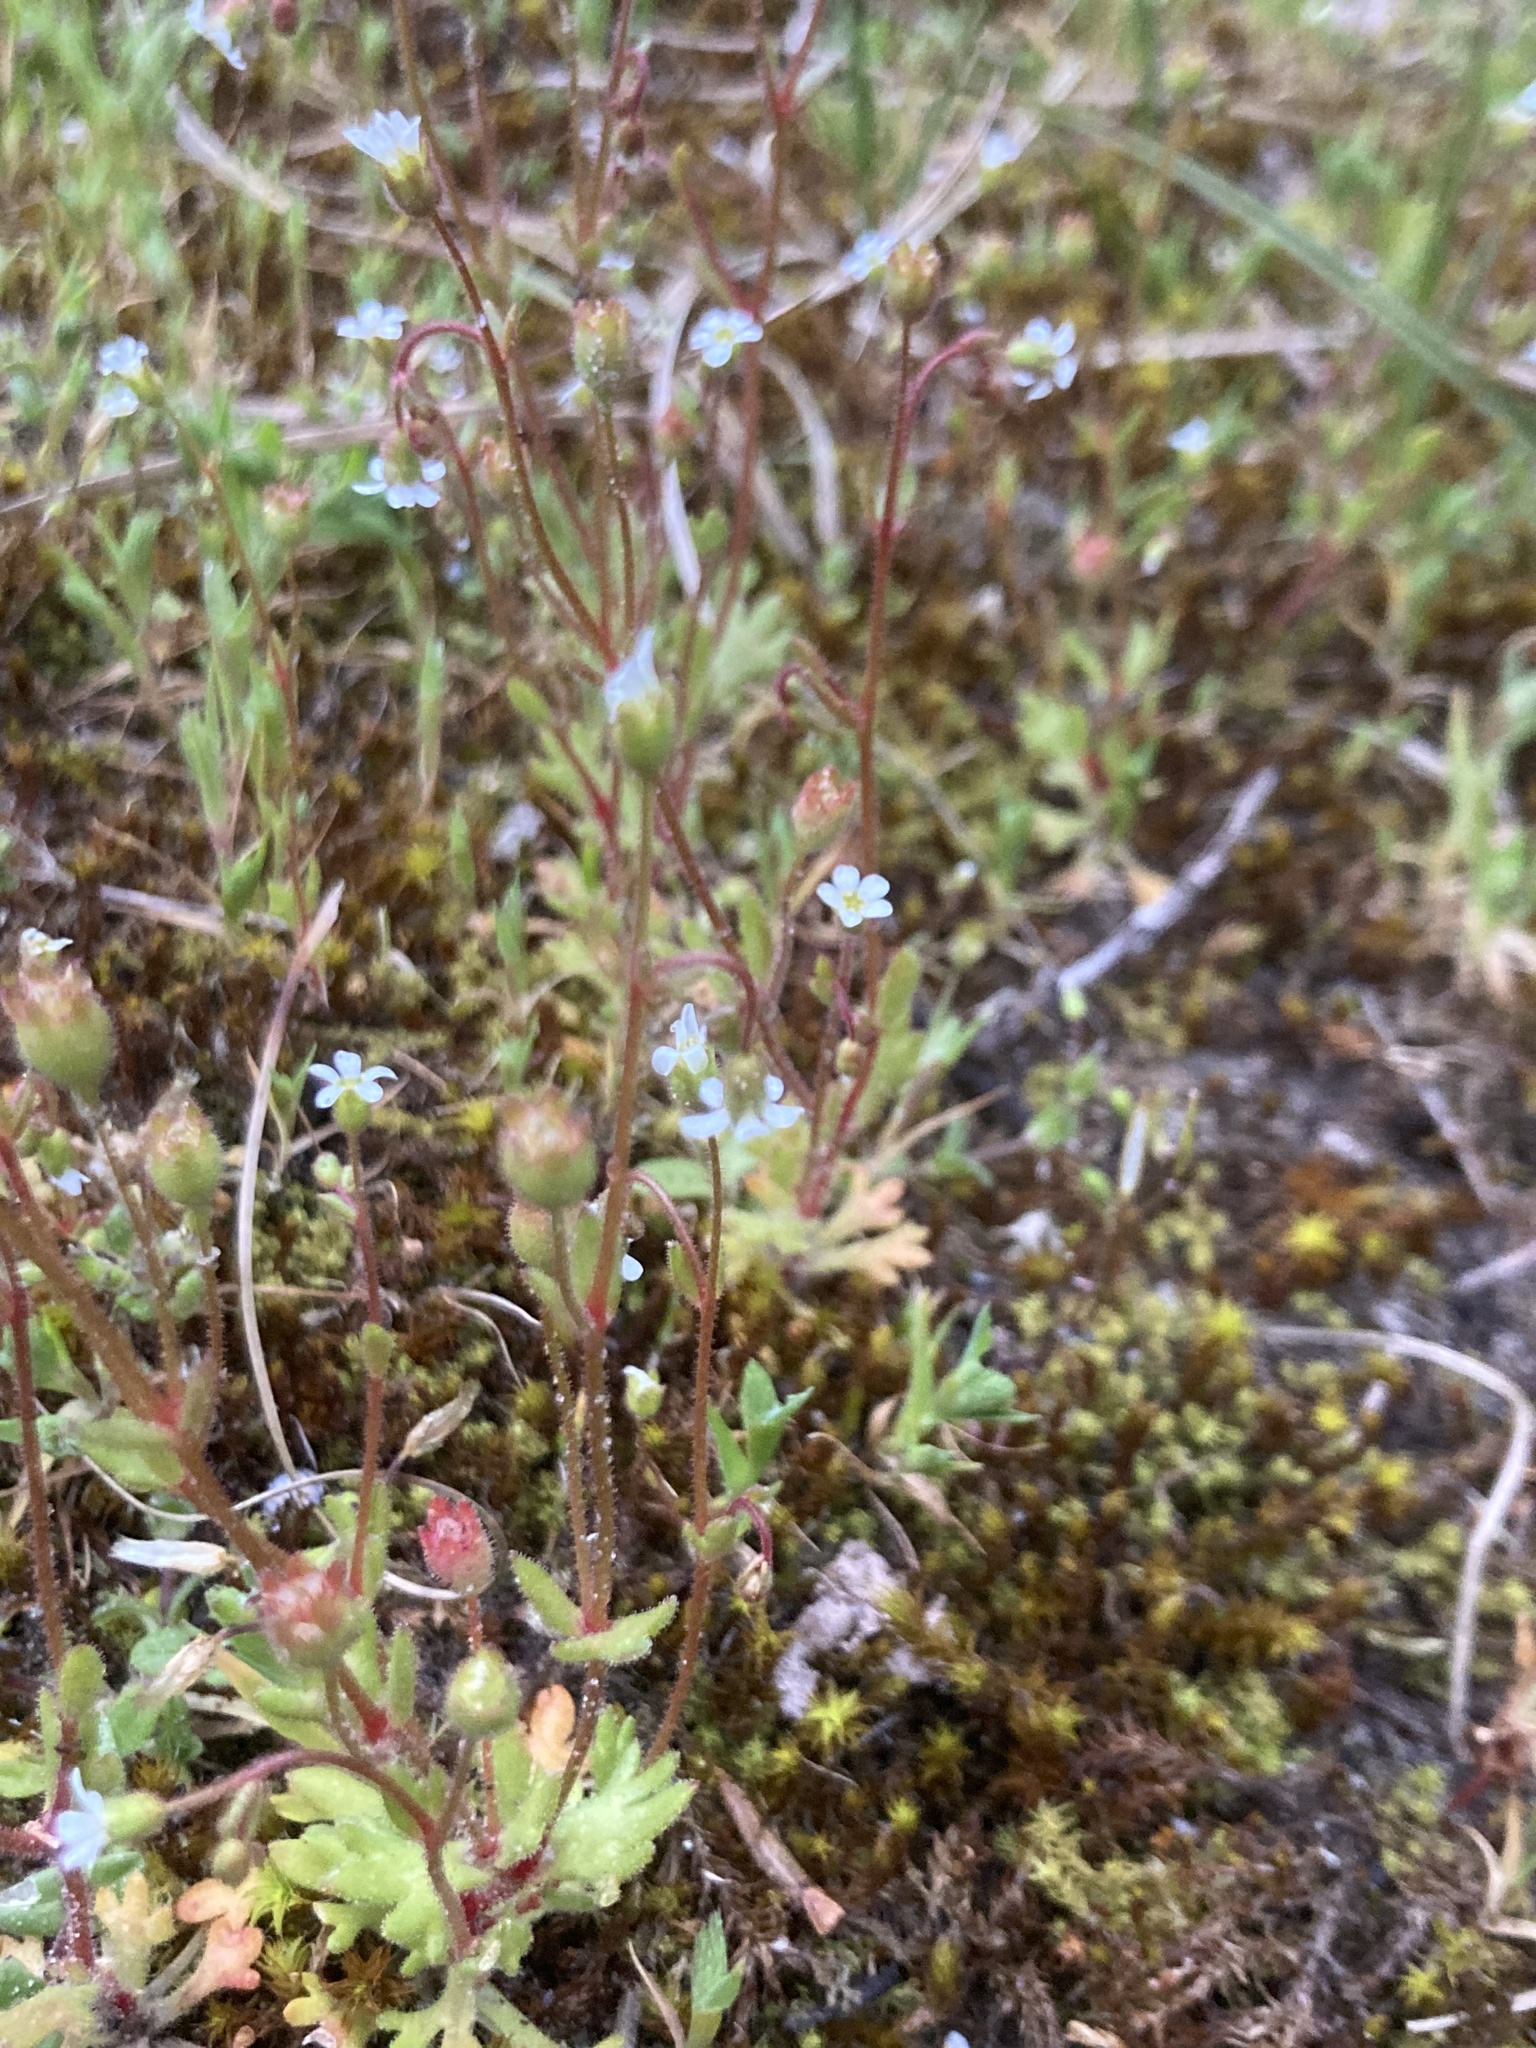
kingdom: Plantae
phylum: Tracheophyta
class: Magnoliopsida
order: Saxifragales
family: Saxifragaceae
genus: Saxifraga
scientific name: Saxifraga tridactylites
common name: Rue-leaved saxifrage
